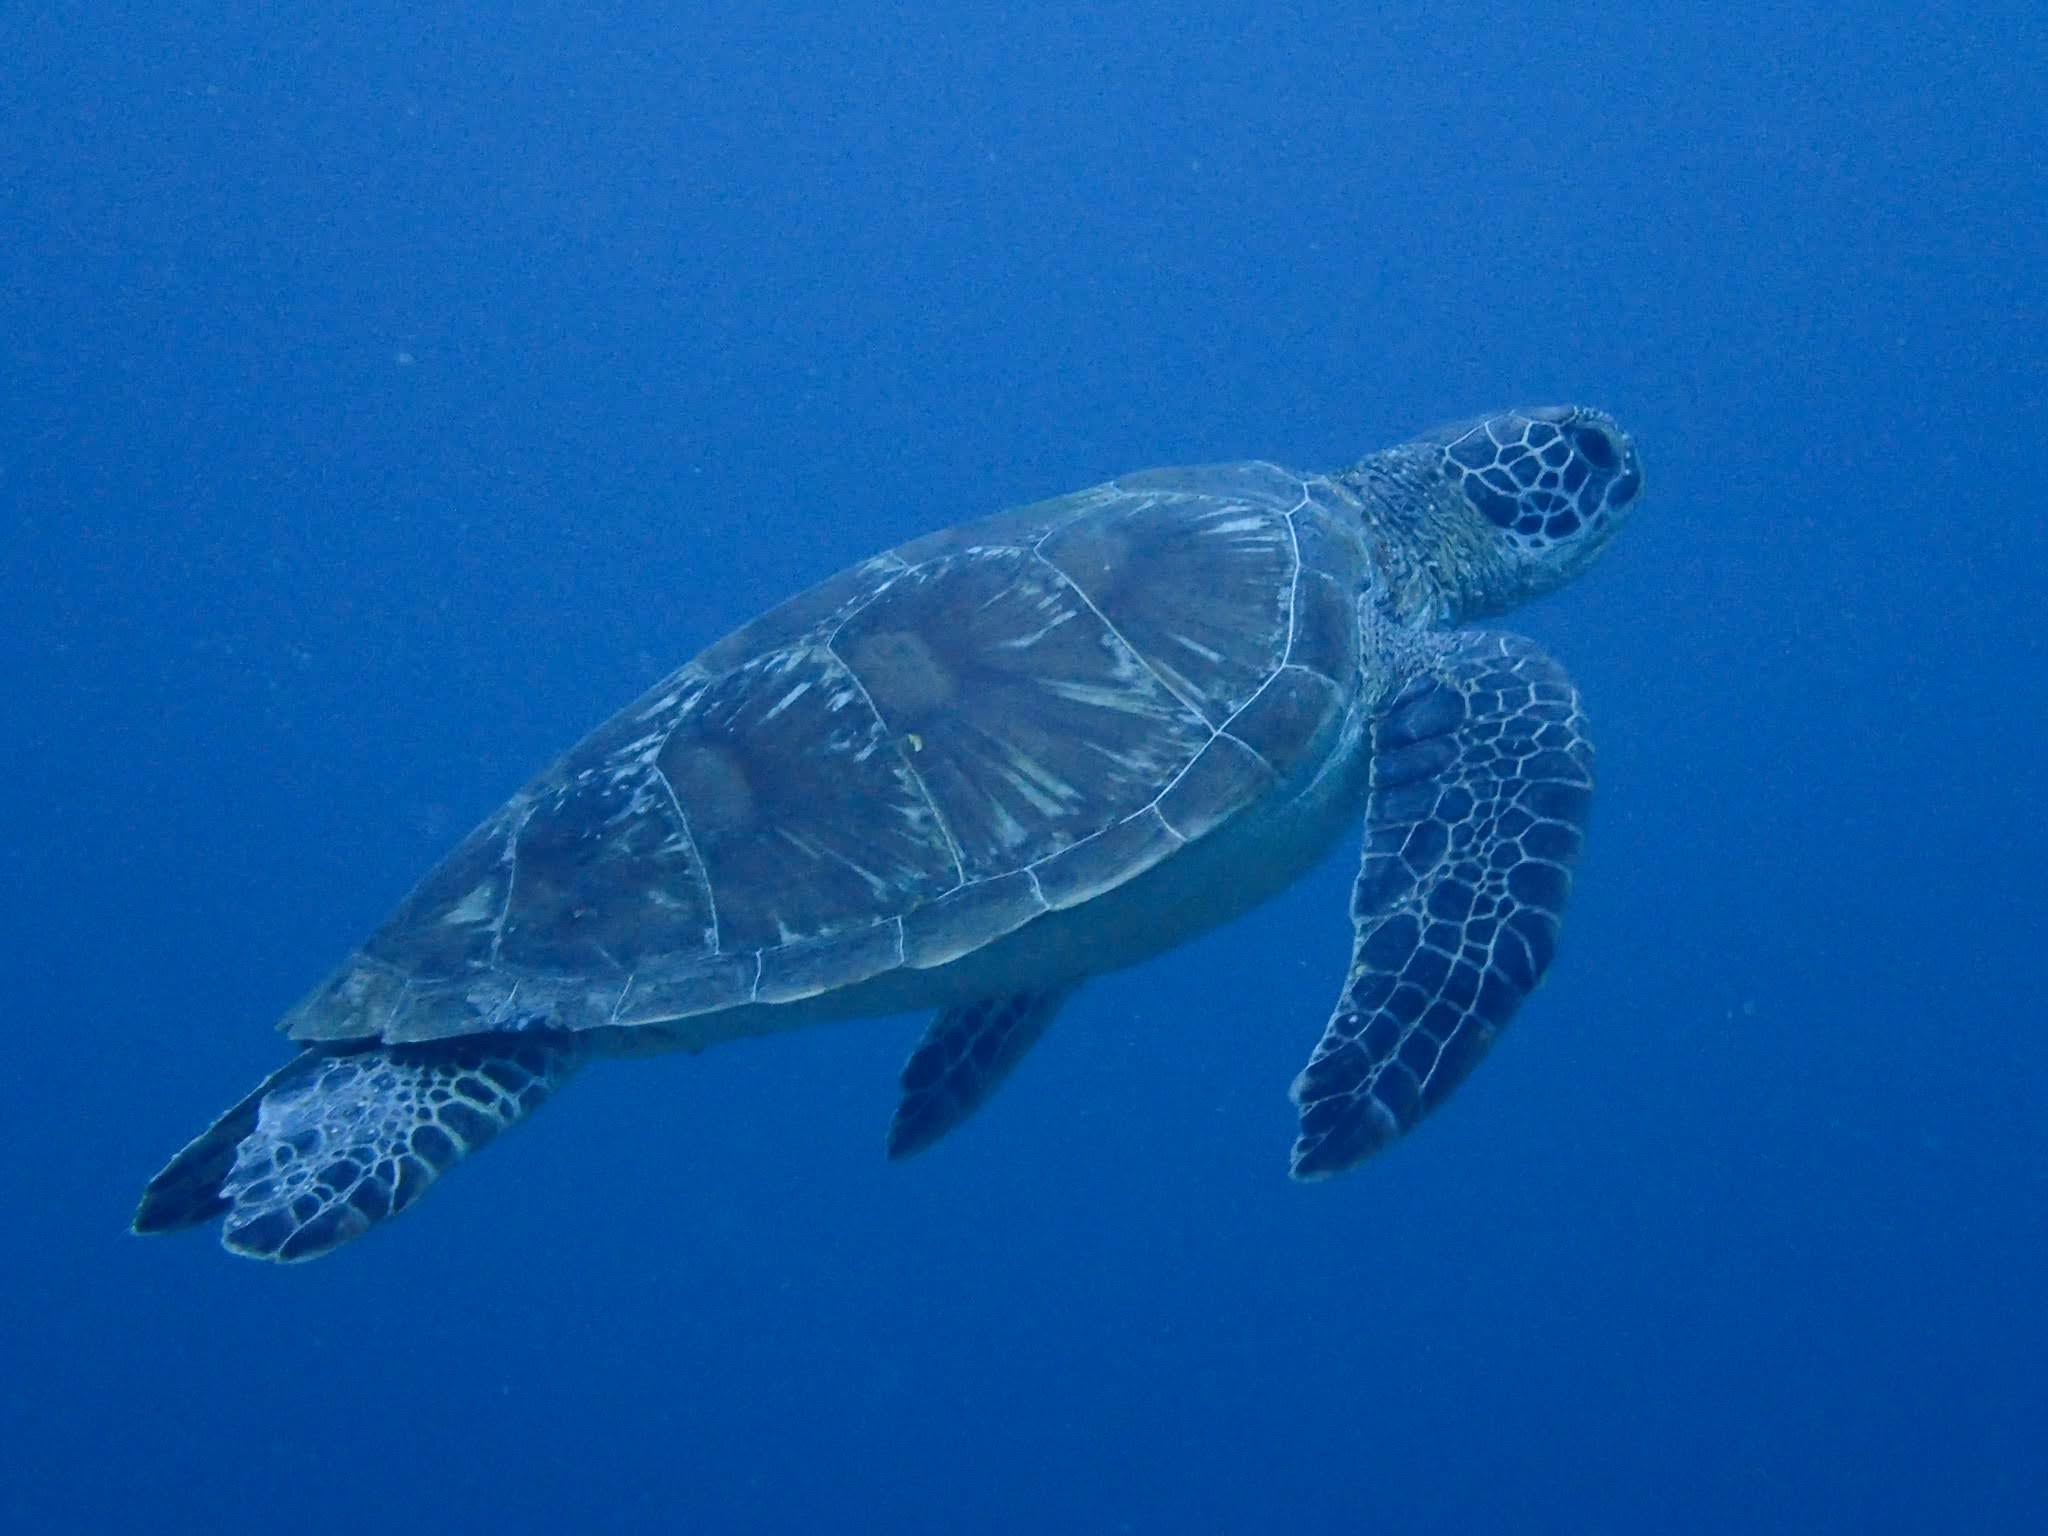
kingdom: Animalia
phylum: Chordata
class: Testudines
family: Cheloniidae
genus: Chelonia
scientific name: Chelonia mydas
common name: Green turtle
